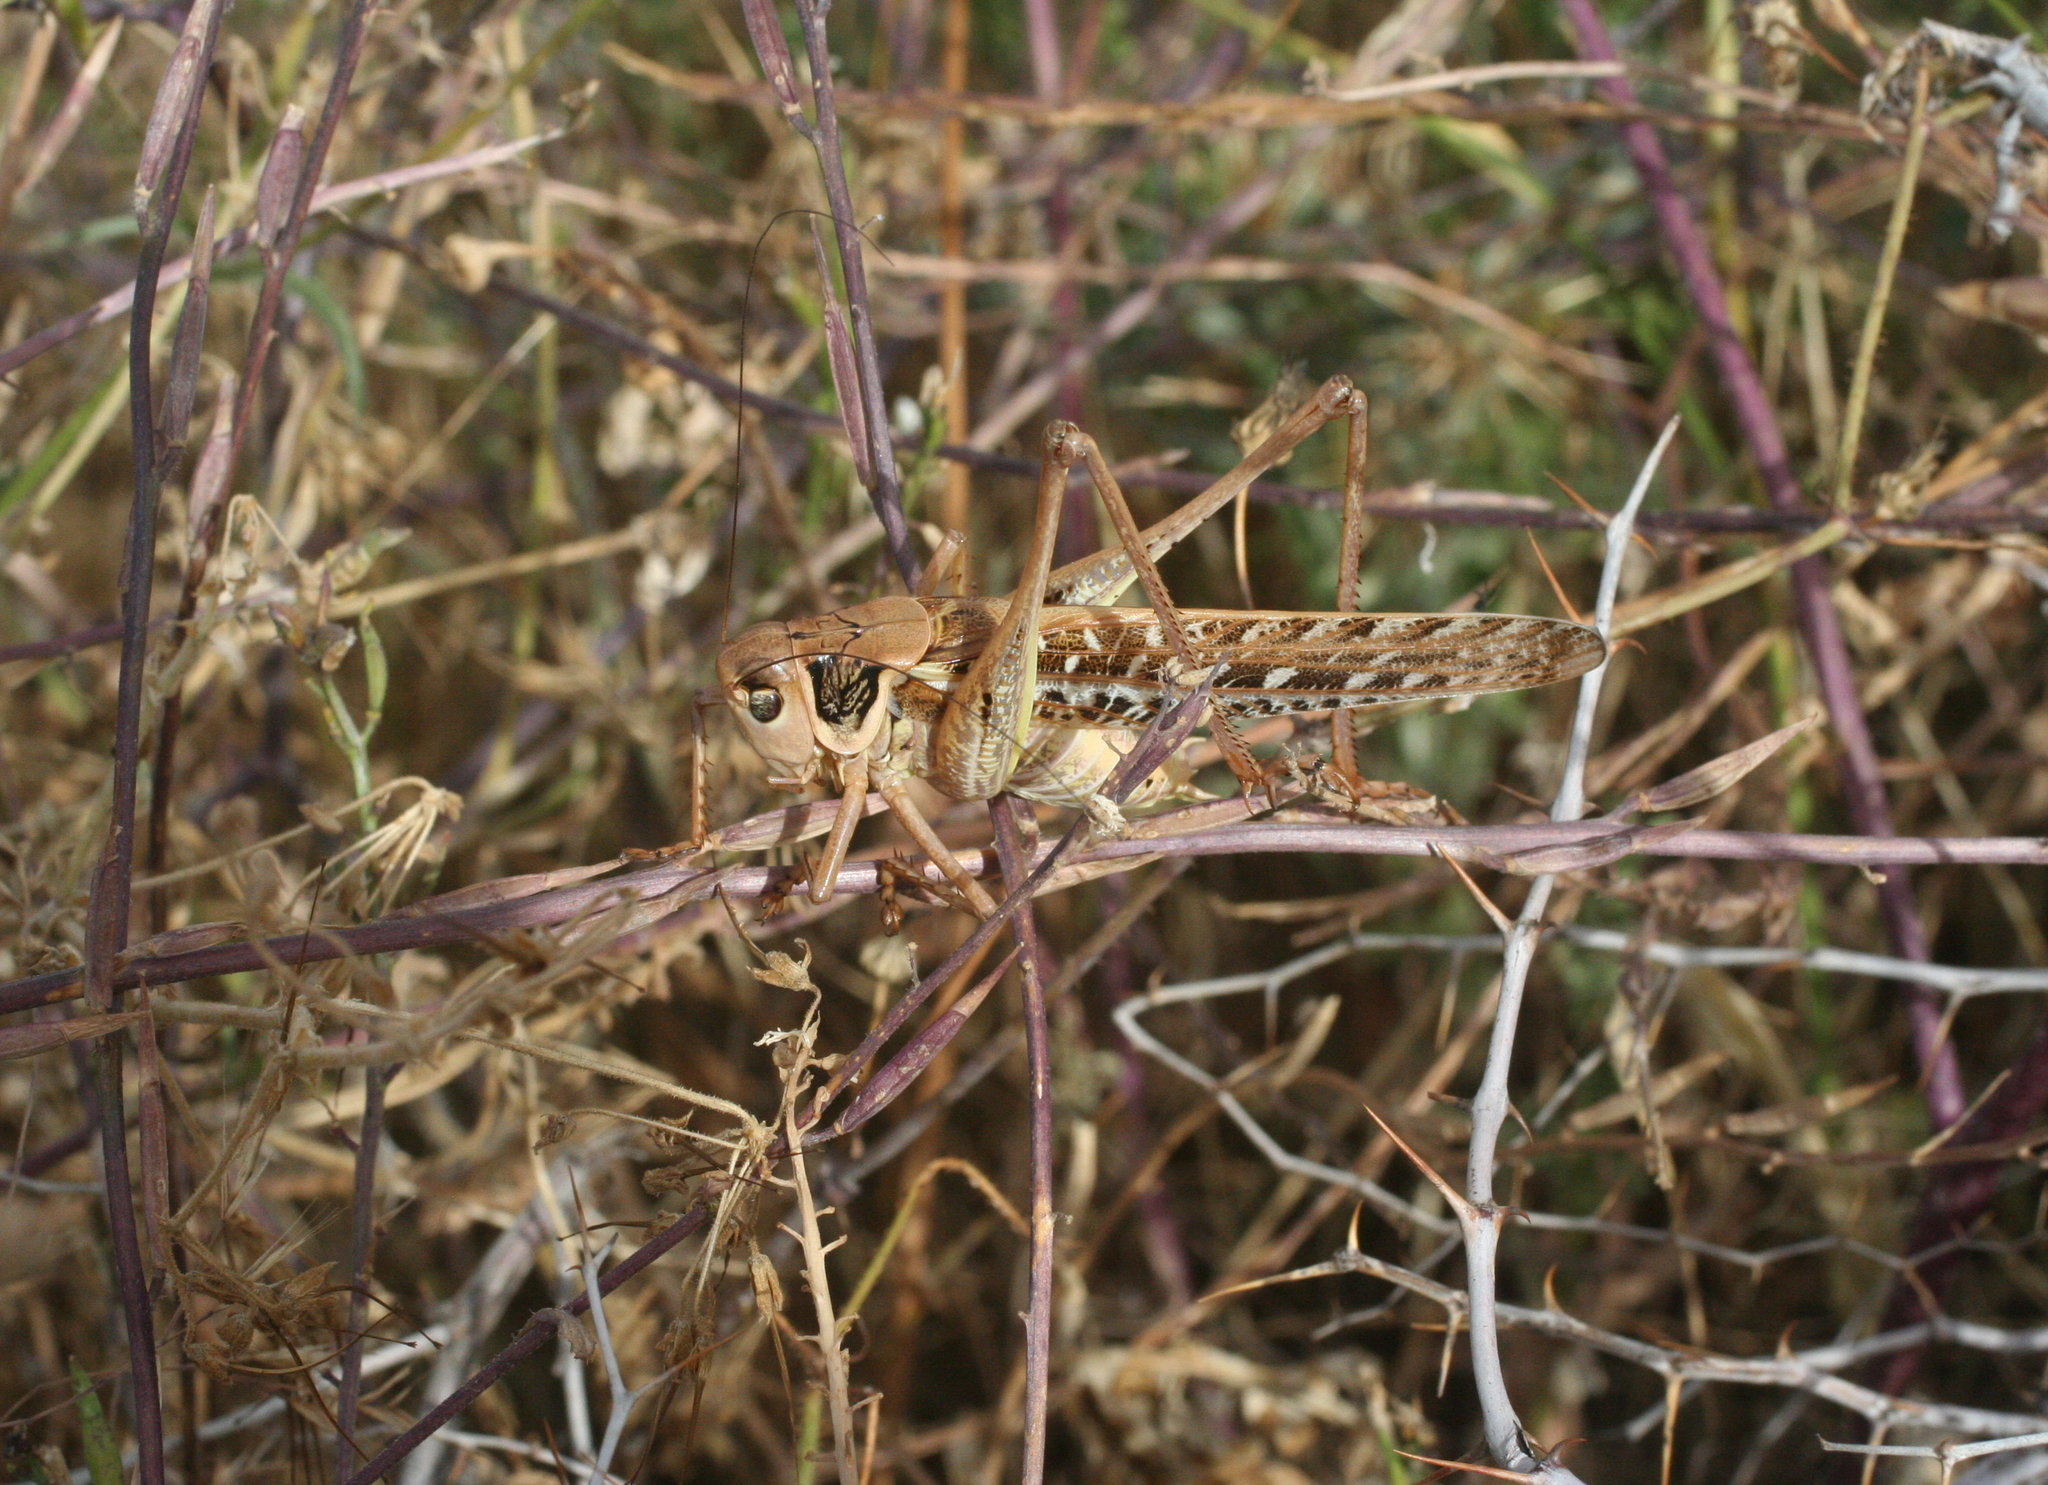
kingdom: Animalia
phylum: Arthropoda
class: Insecta
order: Orthoptera
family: Tettigoniidae
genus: Decticus
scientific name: Decticus albifrons
